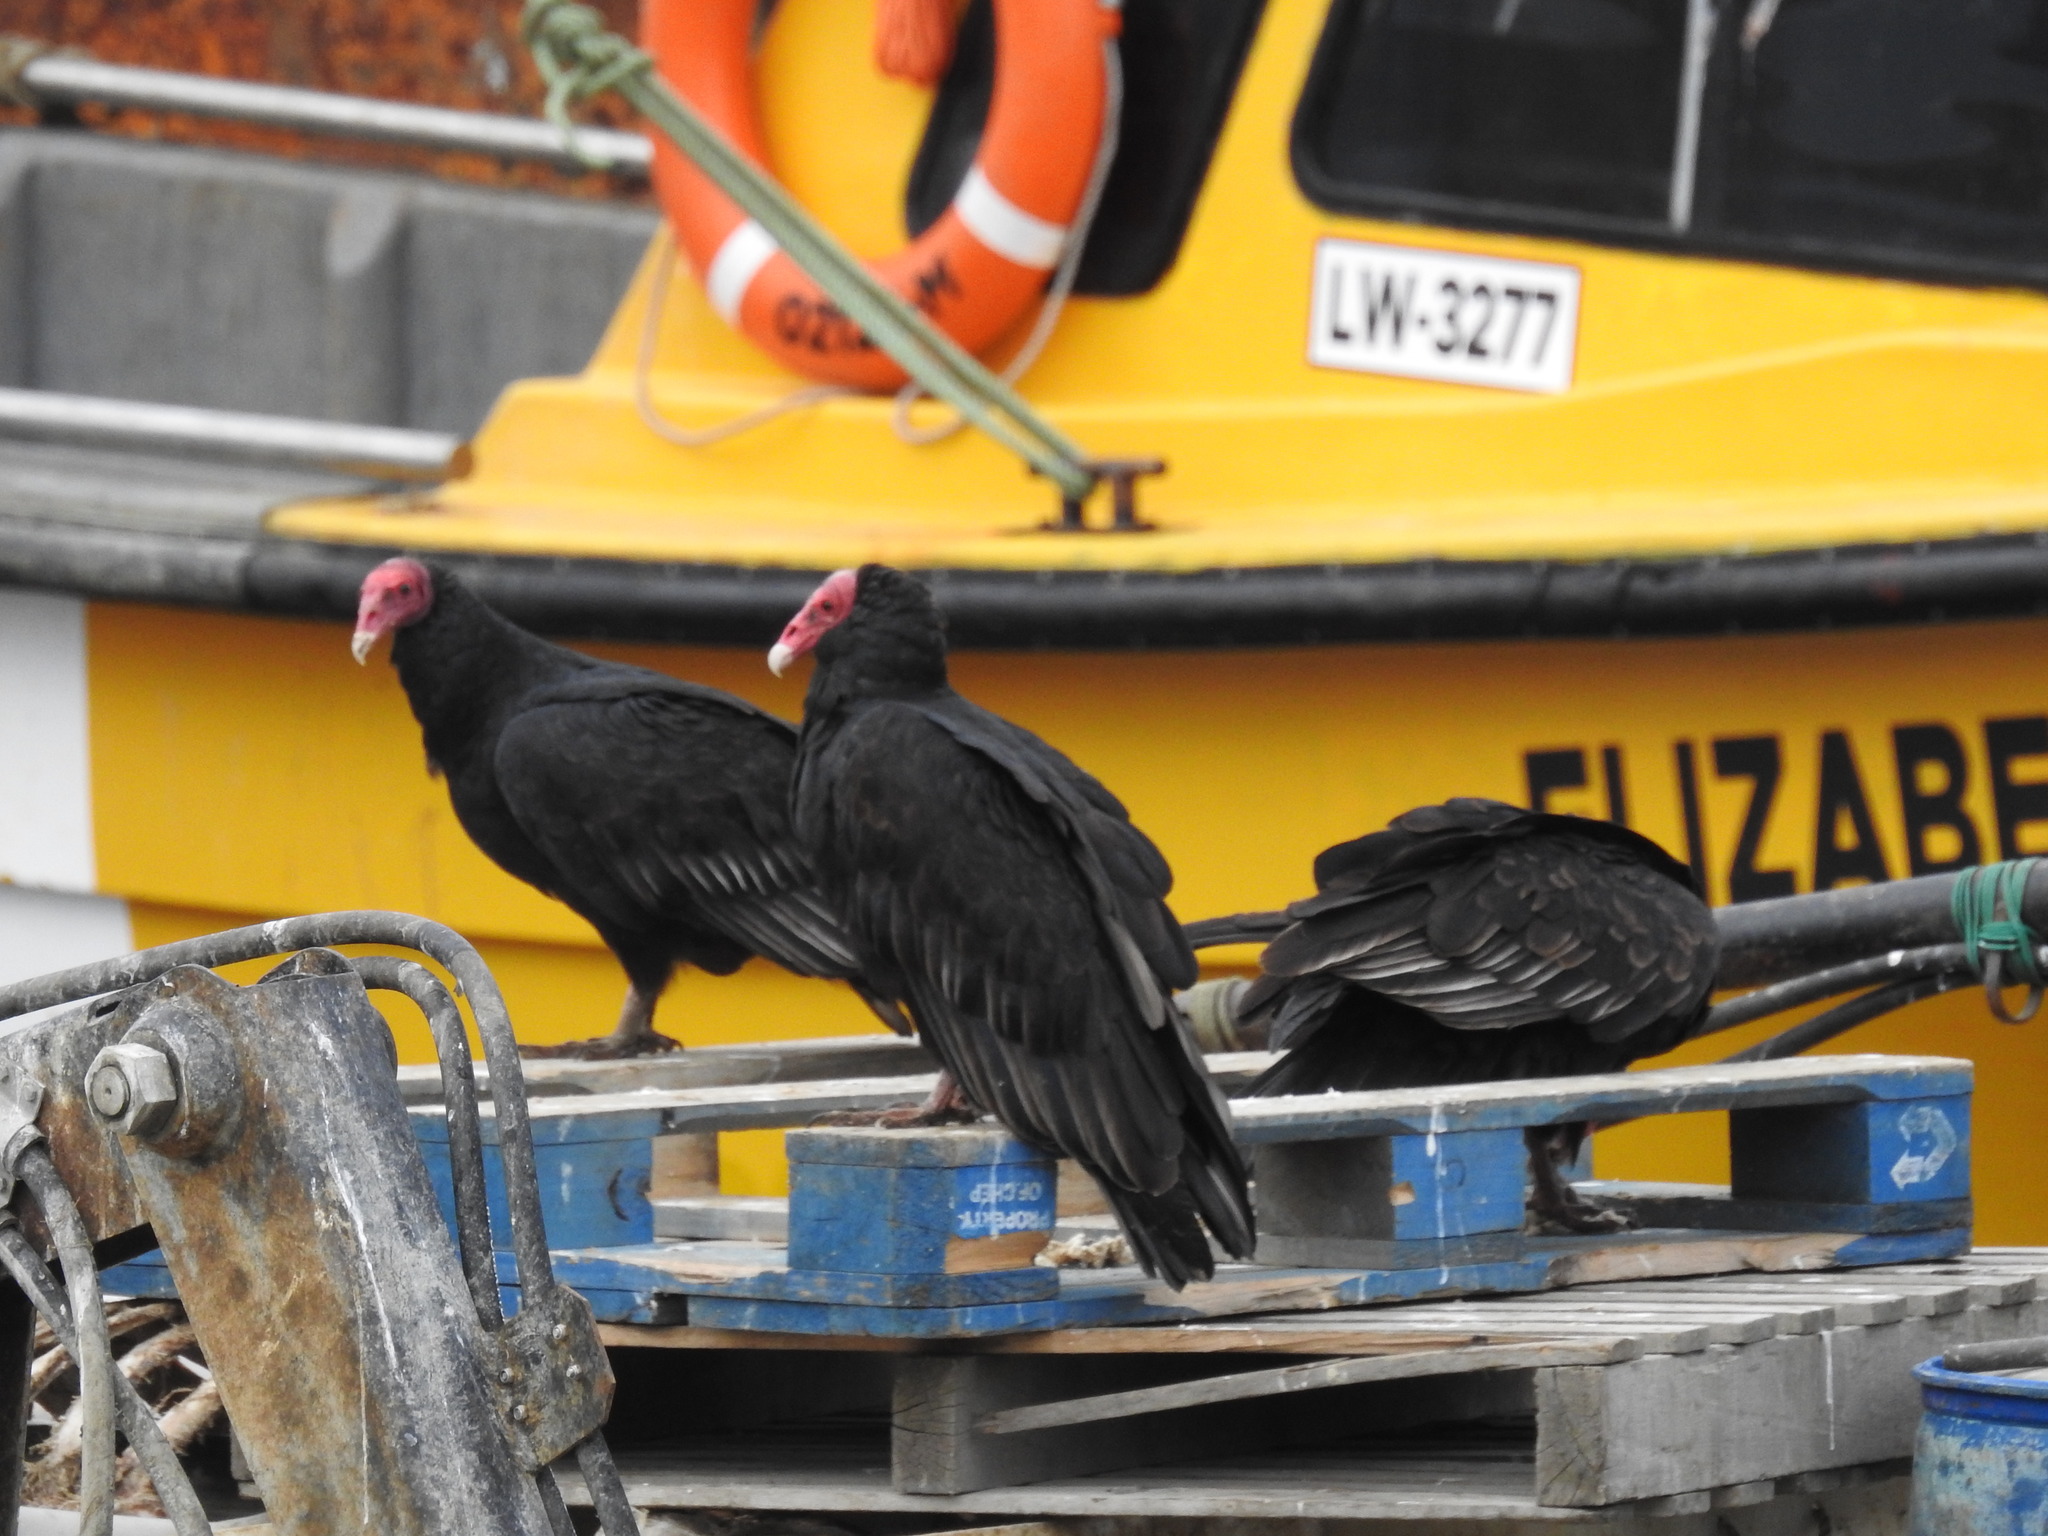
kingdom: Animalia
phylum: Chordata
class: Aves
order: Accipitriformes
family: Cathartidae
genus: Cathartes
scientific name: Cathartes aura
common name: Turkey vulture
